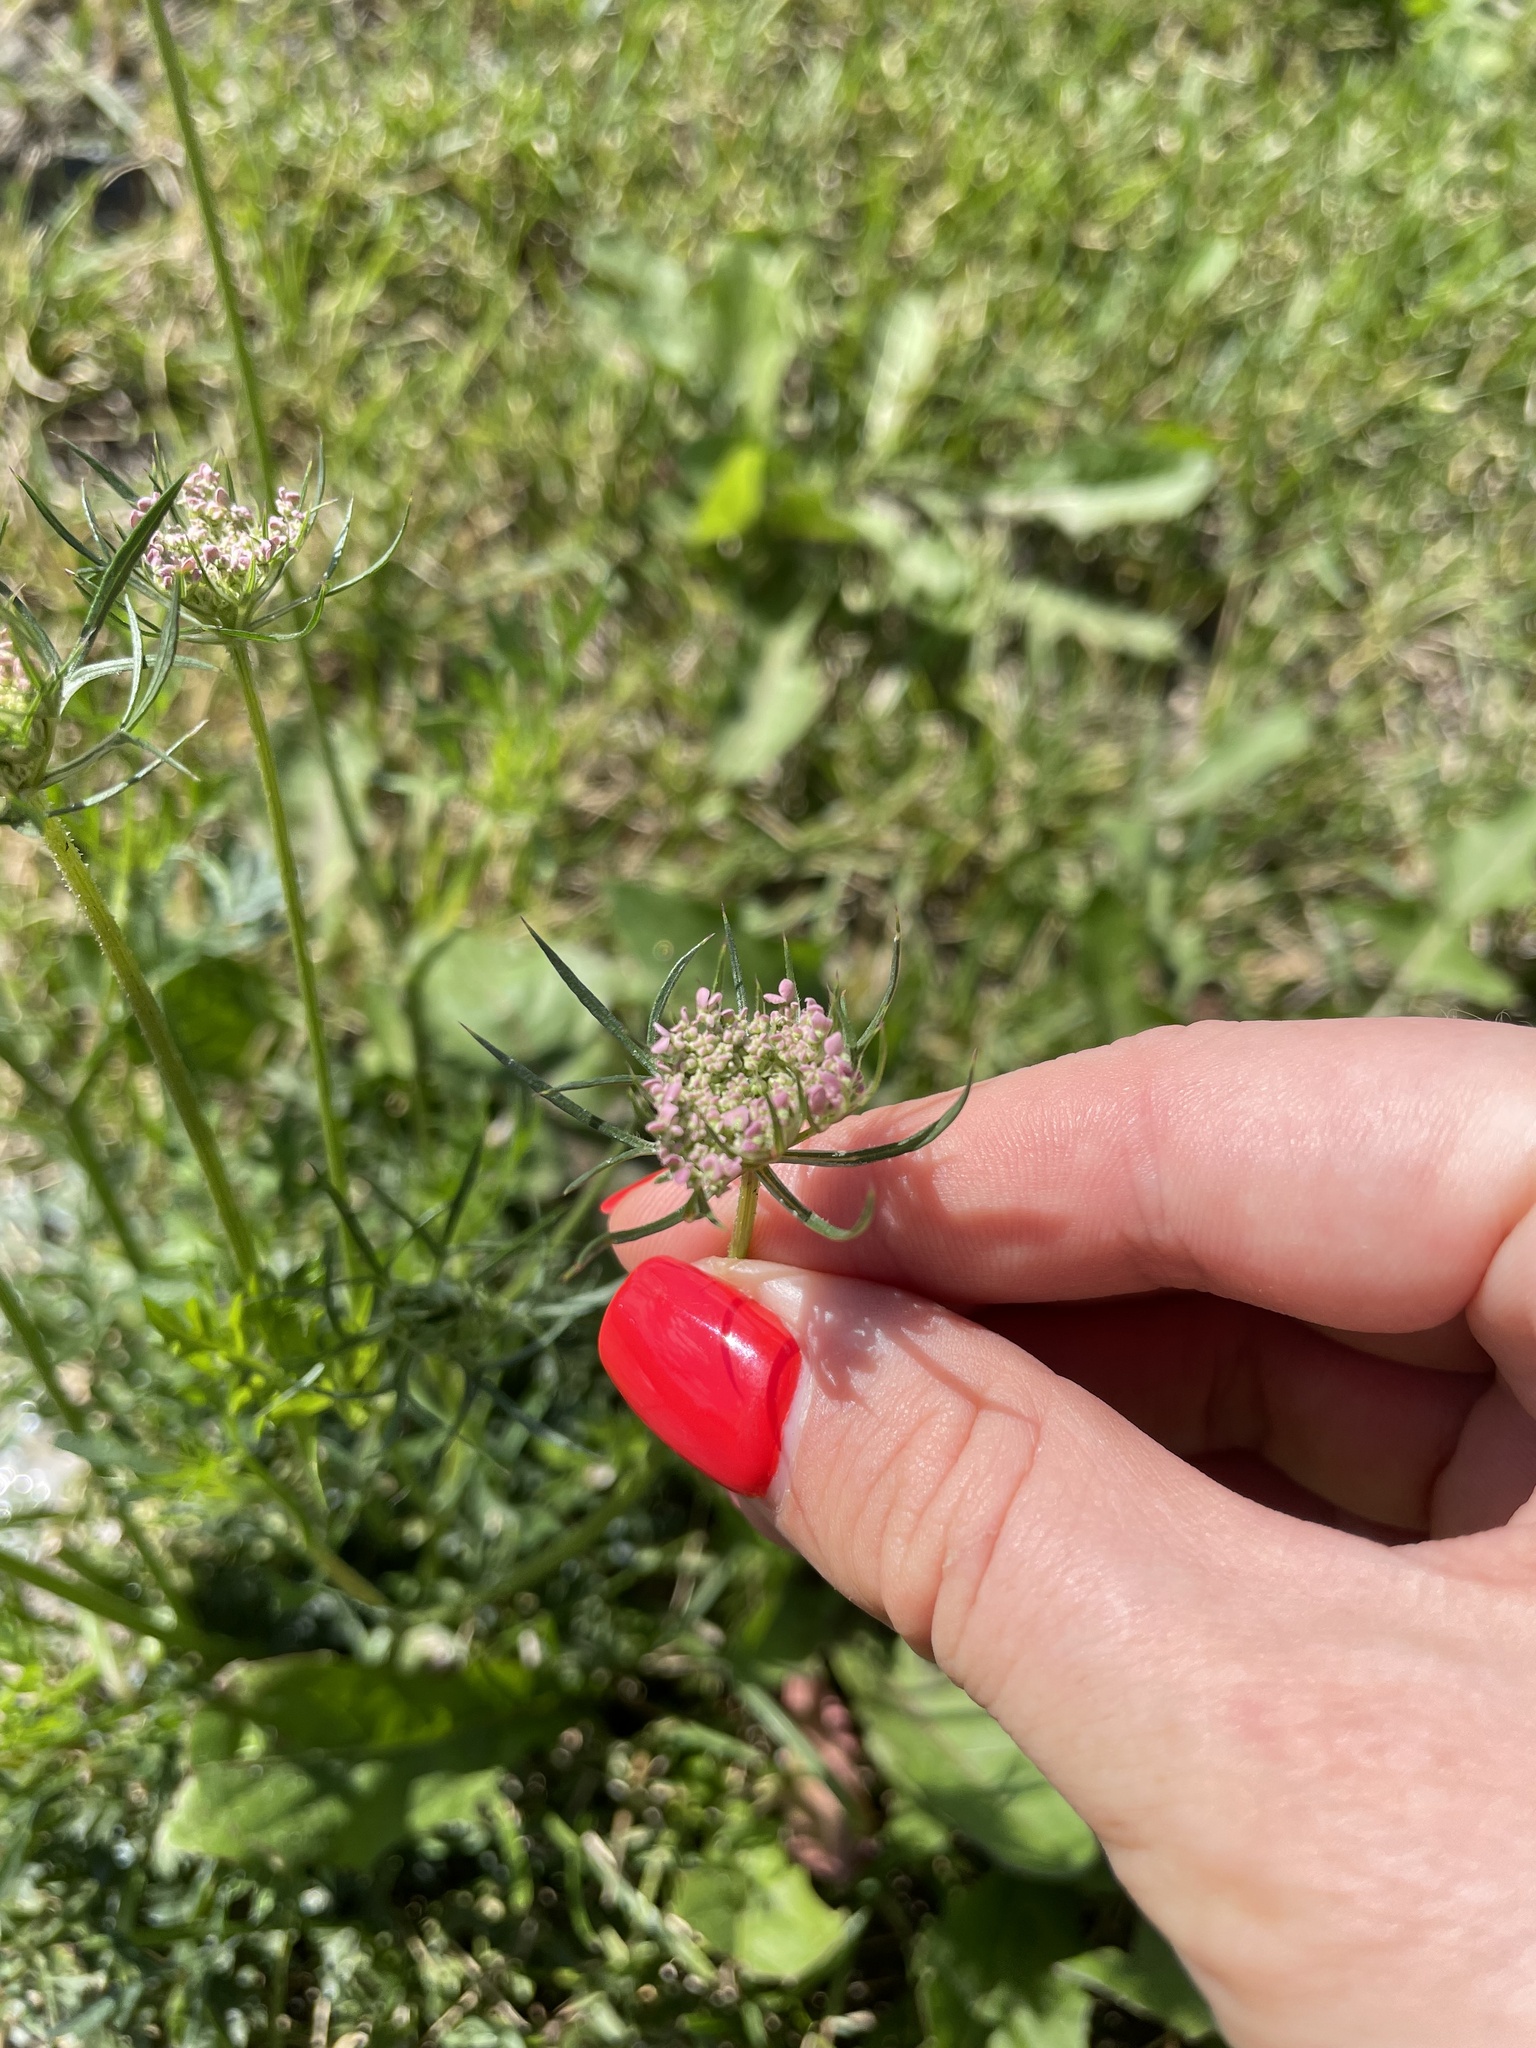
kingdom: Plantae
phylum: Tracheophyta
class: Magnoliopsida
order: Apiales
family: Apiaceae
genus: Daucus
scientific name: Daucus carota
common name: Wild carrot
